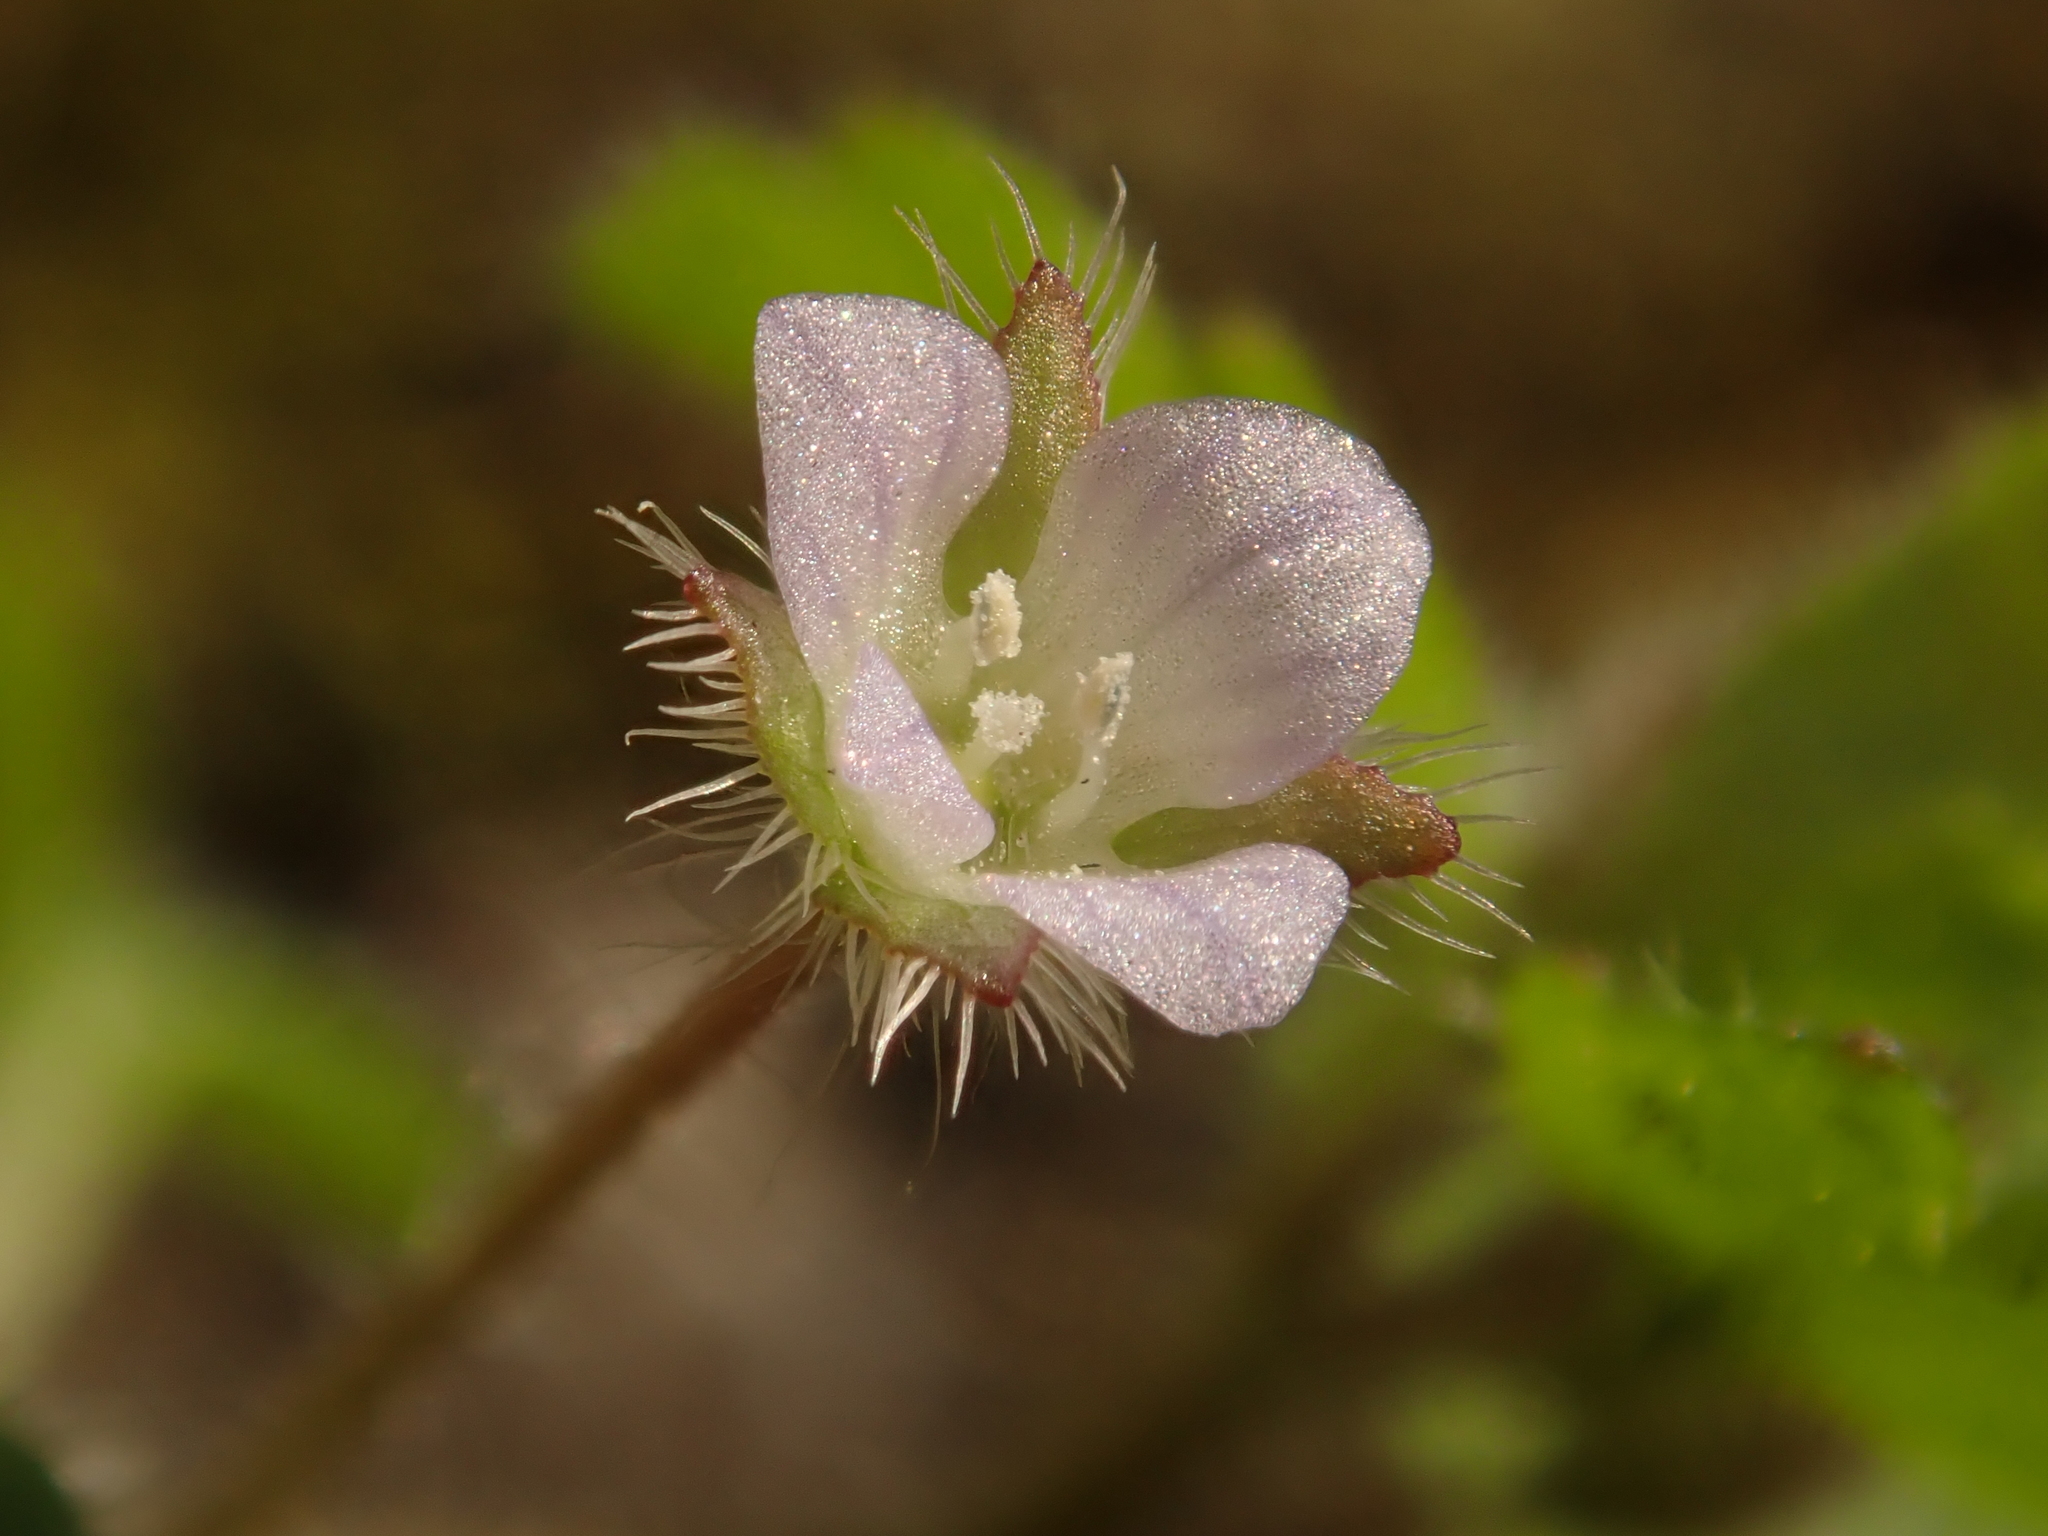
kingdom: Plantae
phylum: Tracheophyta
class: Magnoliopsida
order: Lamiales
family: Plantaginaceae
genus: Veronica
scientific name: Veronica sublobata
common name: False ivy-leaved speedwell
